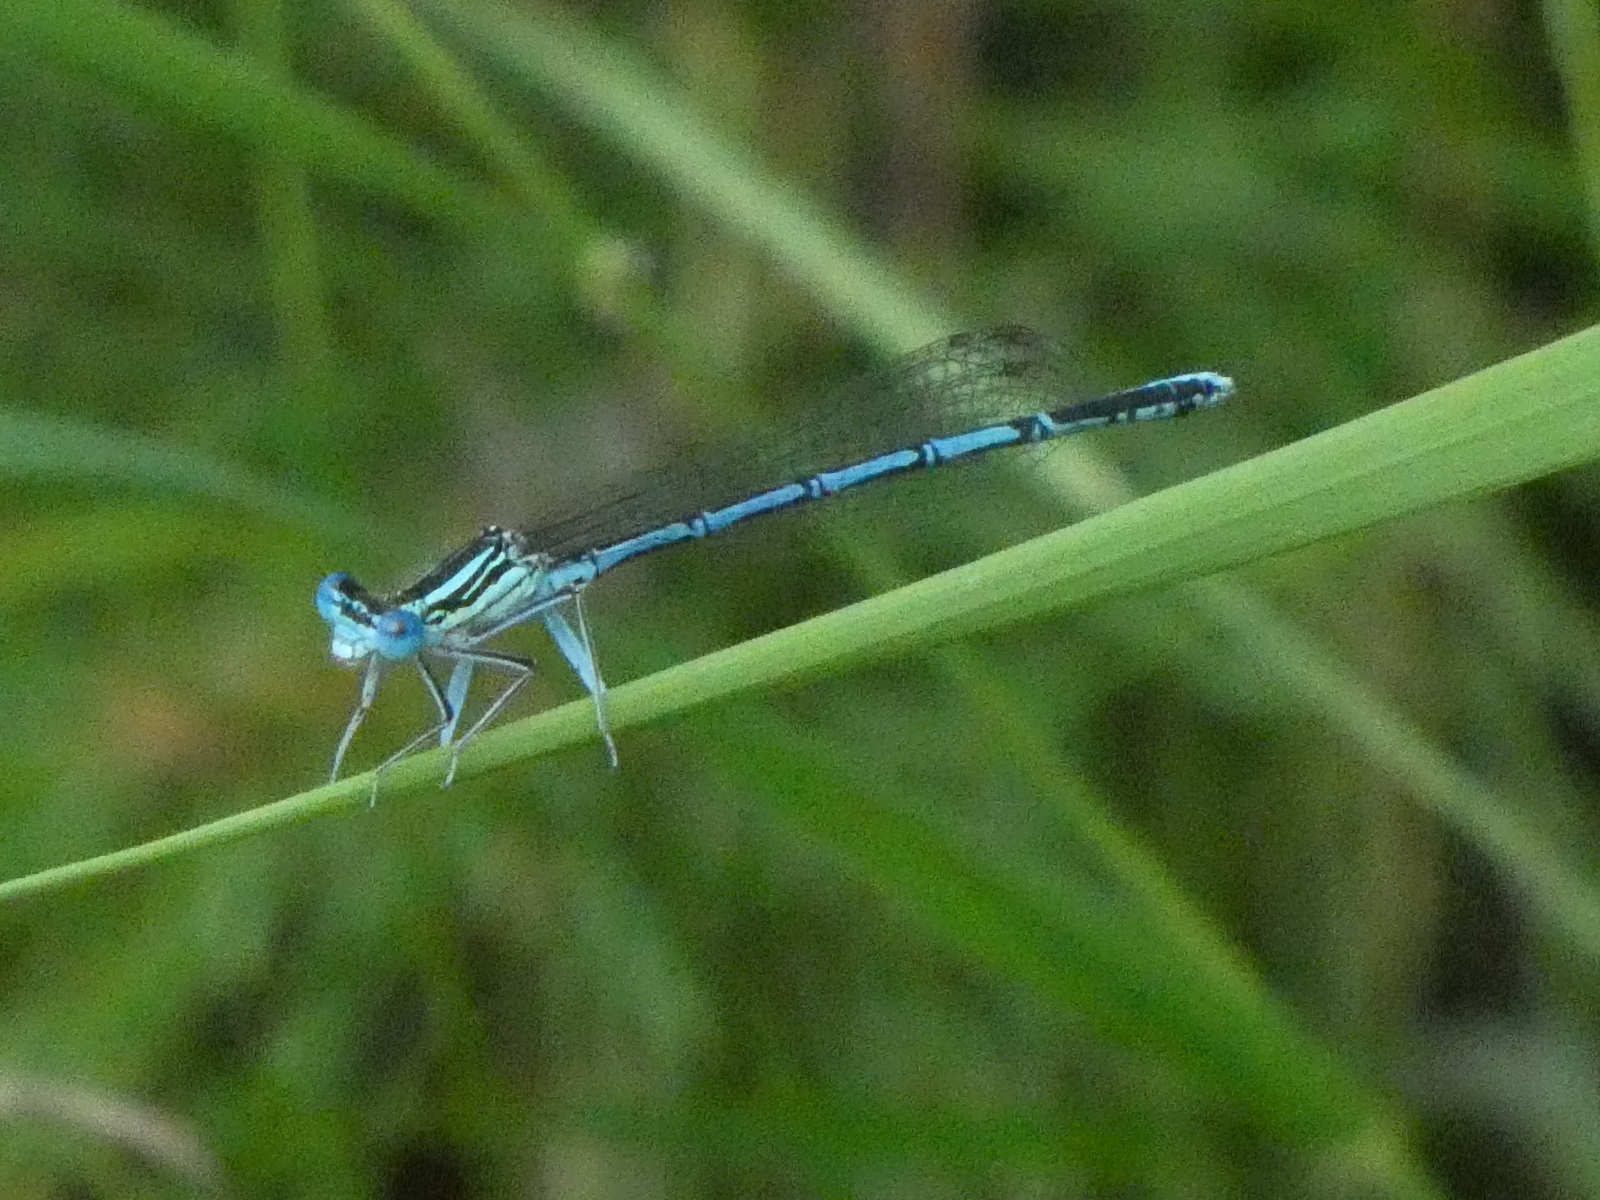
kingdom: Animalia
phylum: Arthropoda
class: Insecta
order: Odonata
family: Platycnemididae
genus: Platycnemis
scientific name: Platycnemis pennipes
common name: White-legged damselfly
